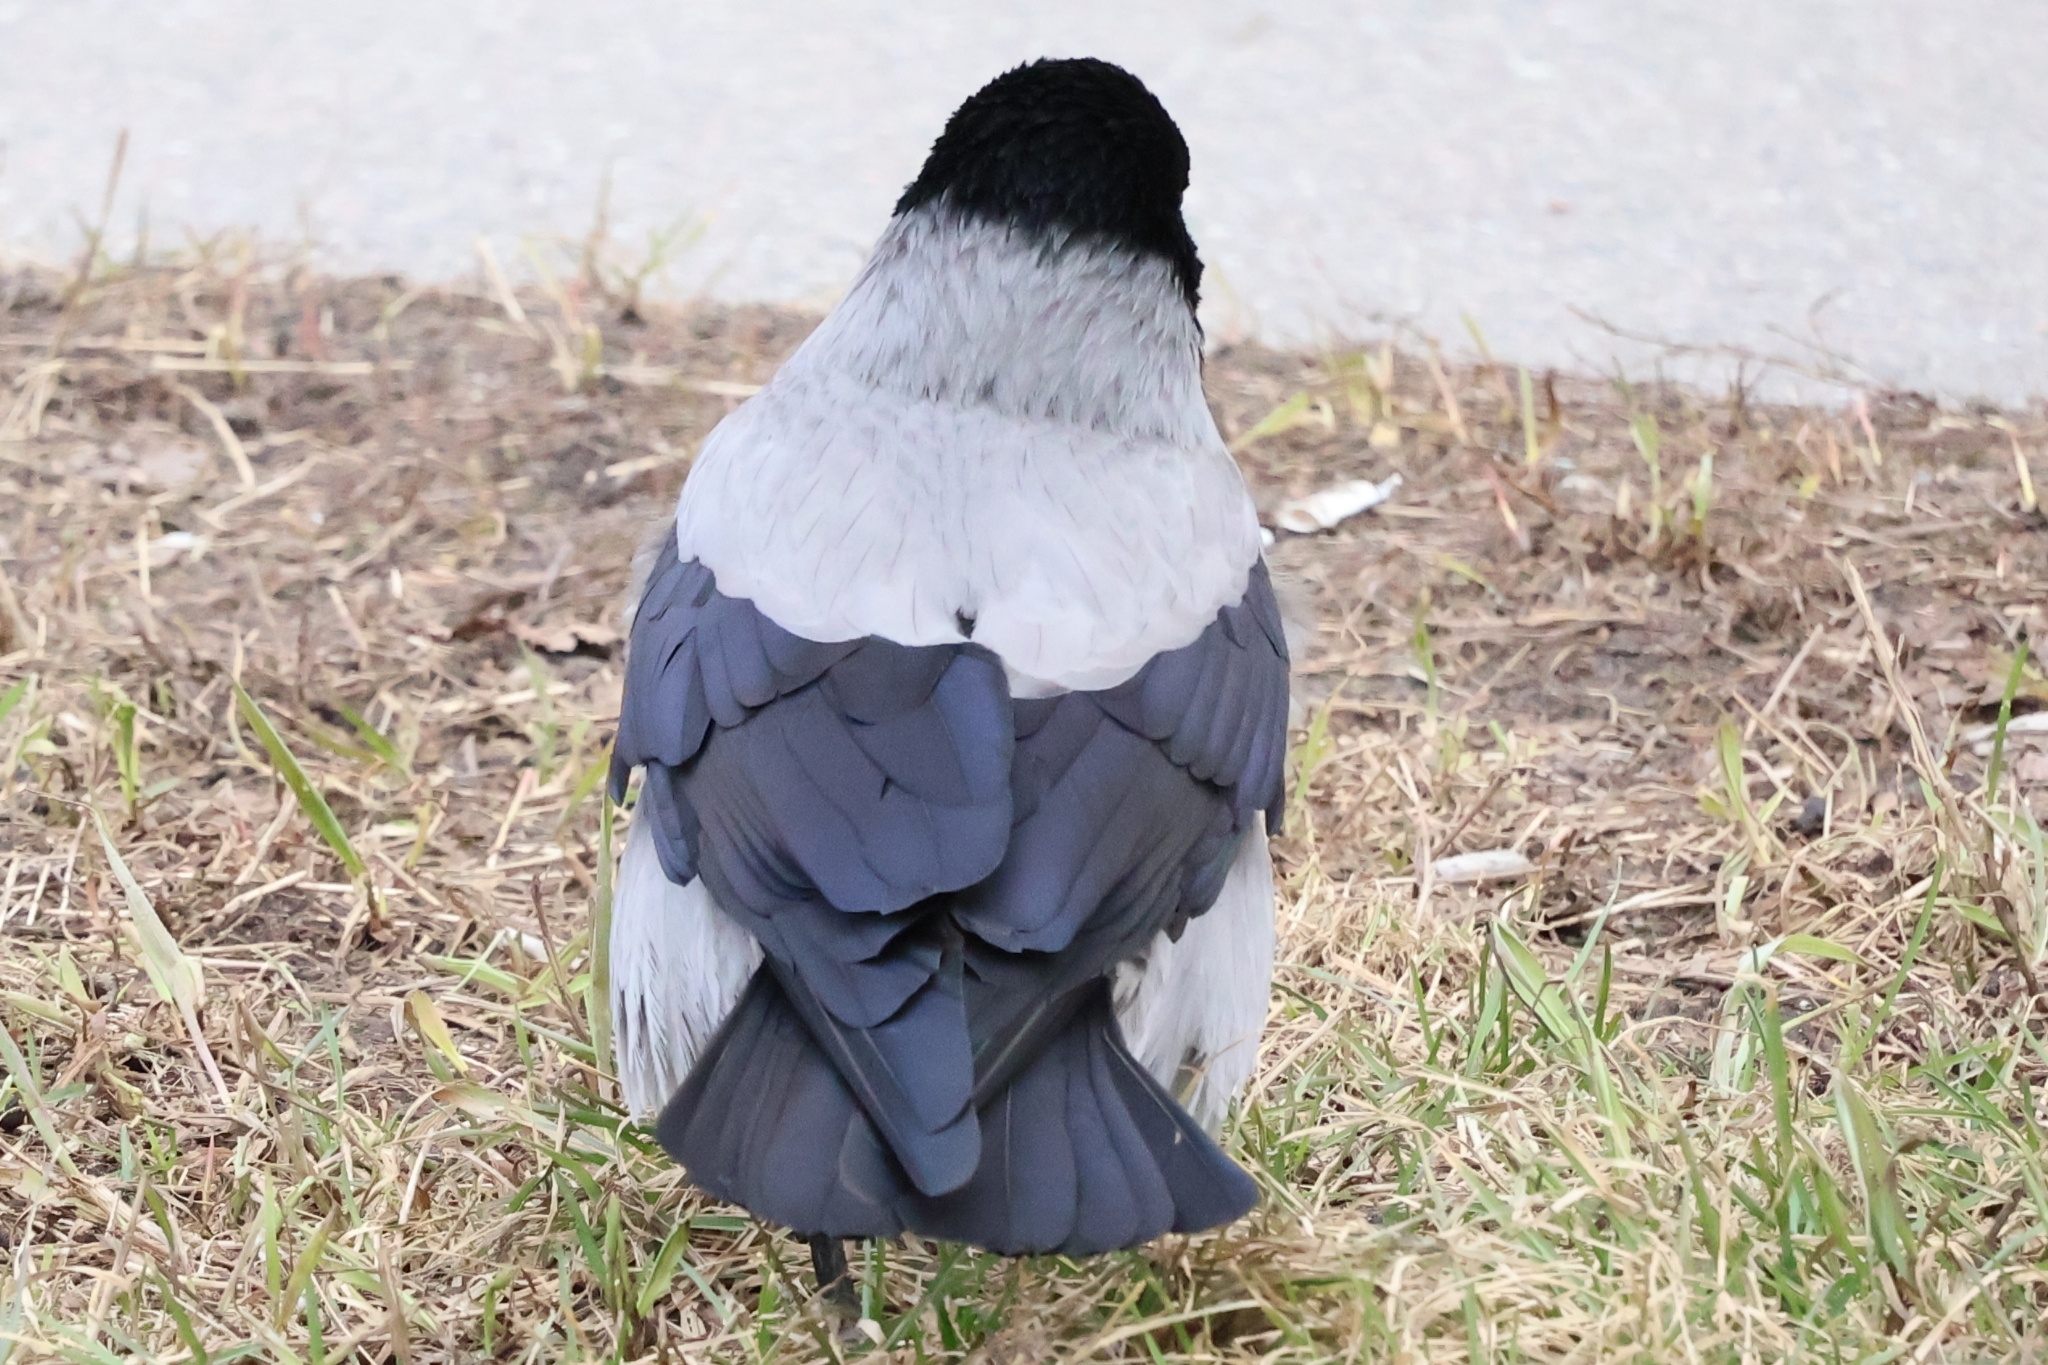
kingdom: Animalia
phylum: Chordata
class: Aves
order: Passeriformes
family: Corvidae
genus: Corvus
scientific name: Corvus cornix
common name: Hooded crow
